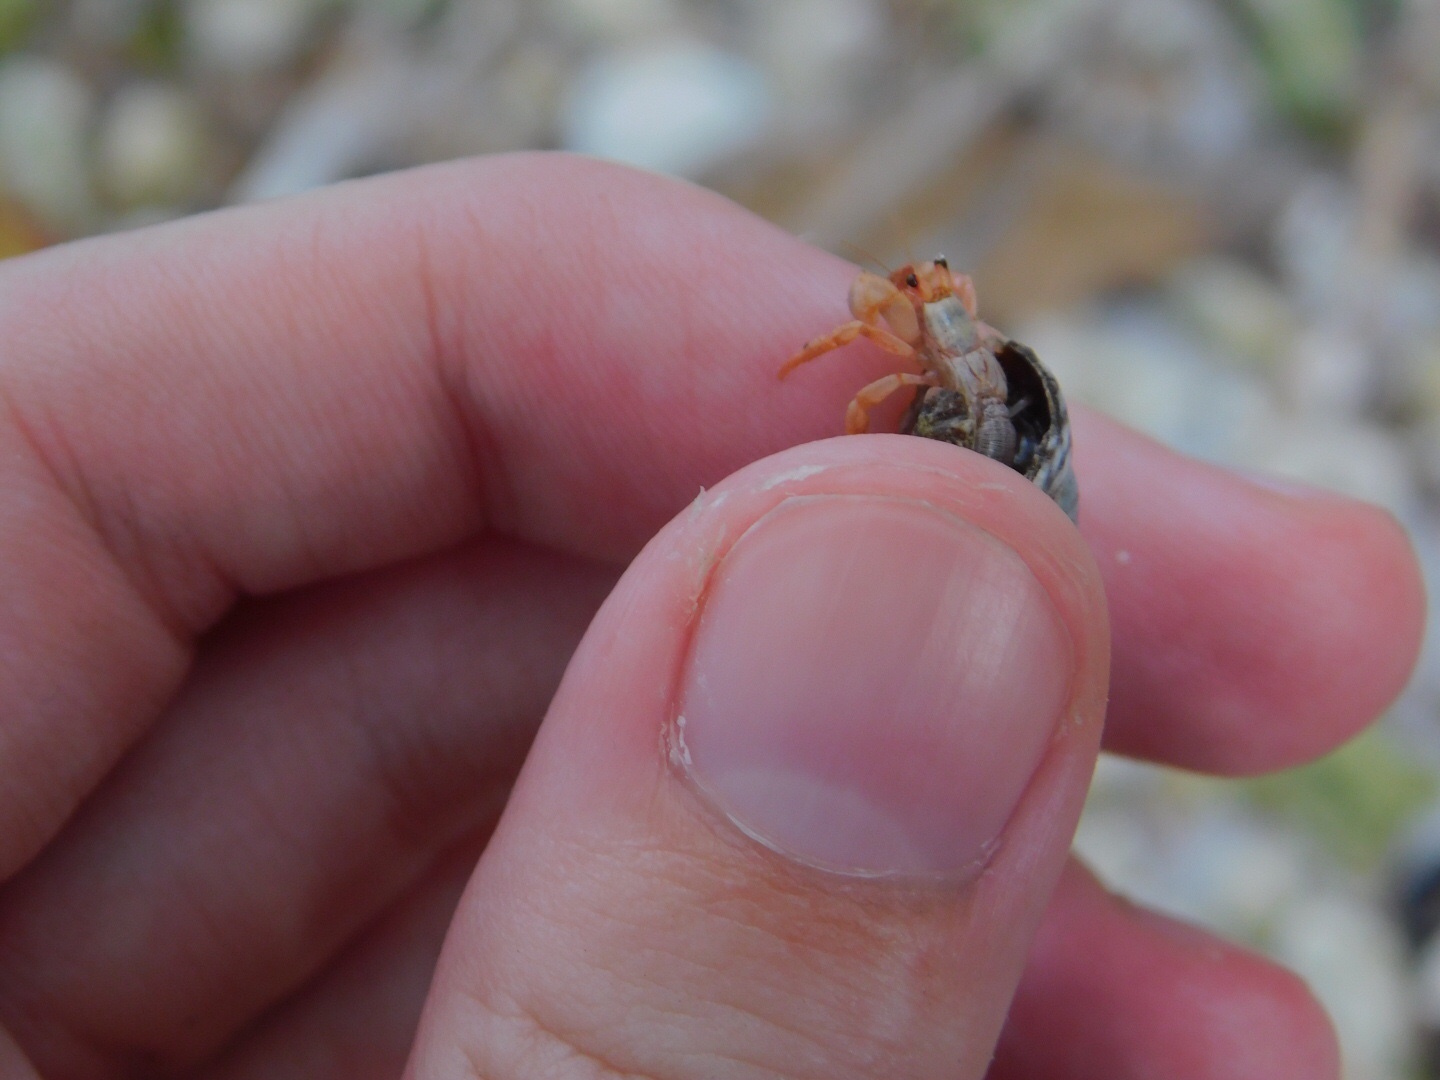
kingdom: Animalia
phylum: Arthropoda
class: Malacostraca
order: Decapoda
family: Coenobitidae
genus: Coenobita
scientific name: Coenobita clypeatus
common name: Caribbean hermit crab
